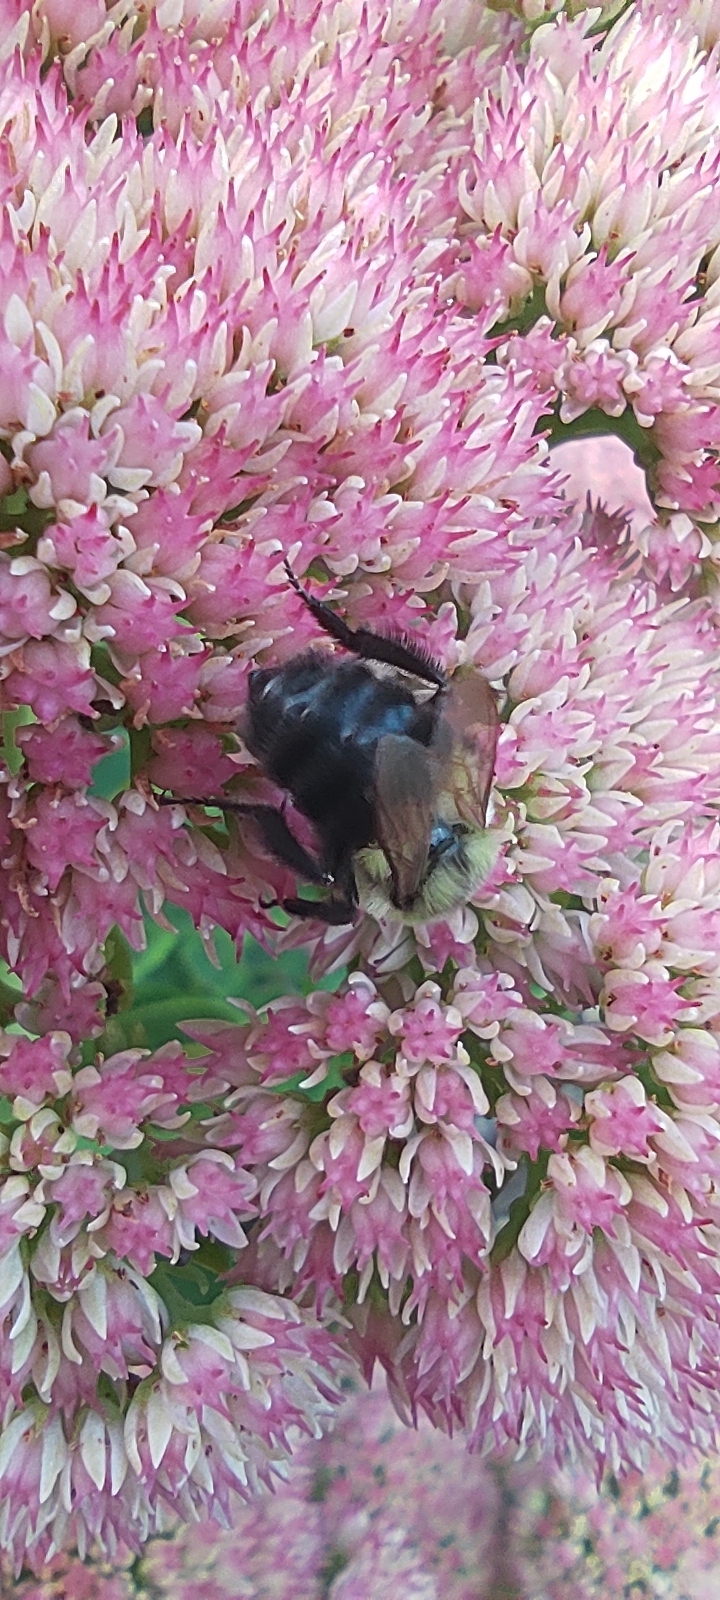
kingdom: Animalia
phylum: Arthropoda
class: Insecta
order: Hymenoptera
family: Apidae
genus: Bombus
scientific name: Bombus impatiens
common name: Common eastern bumble bee
